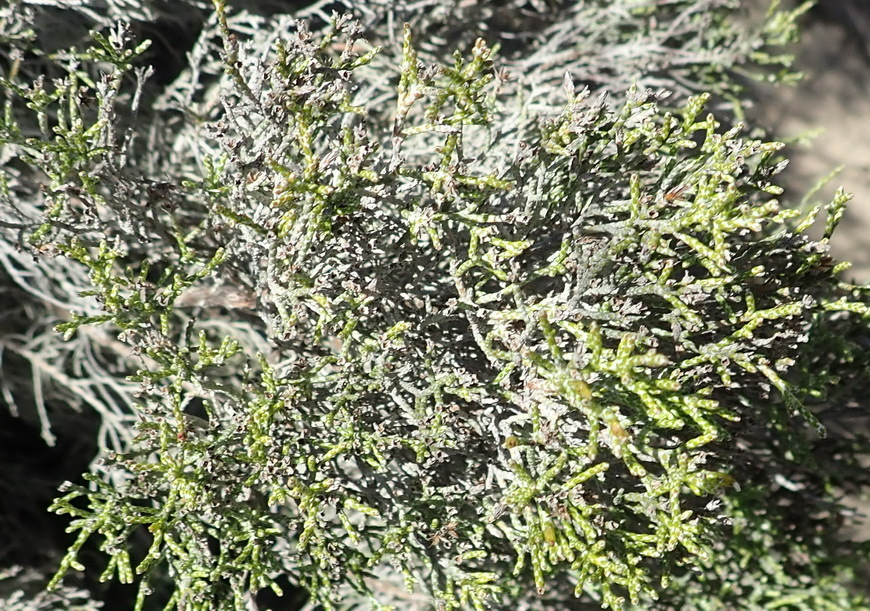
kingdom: Plantae
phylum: Tracheophyta
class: Magnoliopsida
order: Asterales
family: Asteraceae
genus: Dicerothamnus
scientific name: Dicerothamnus rhinocerotis
